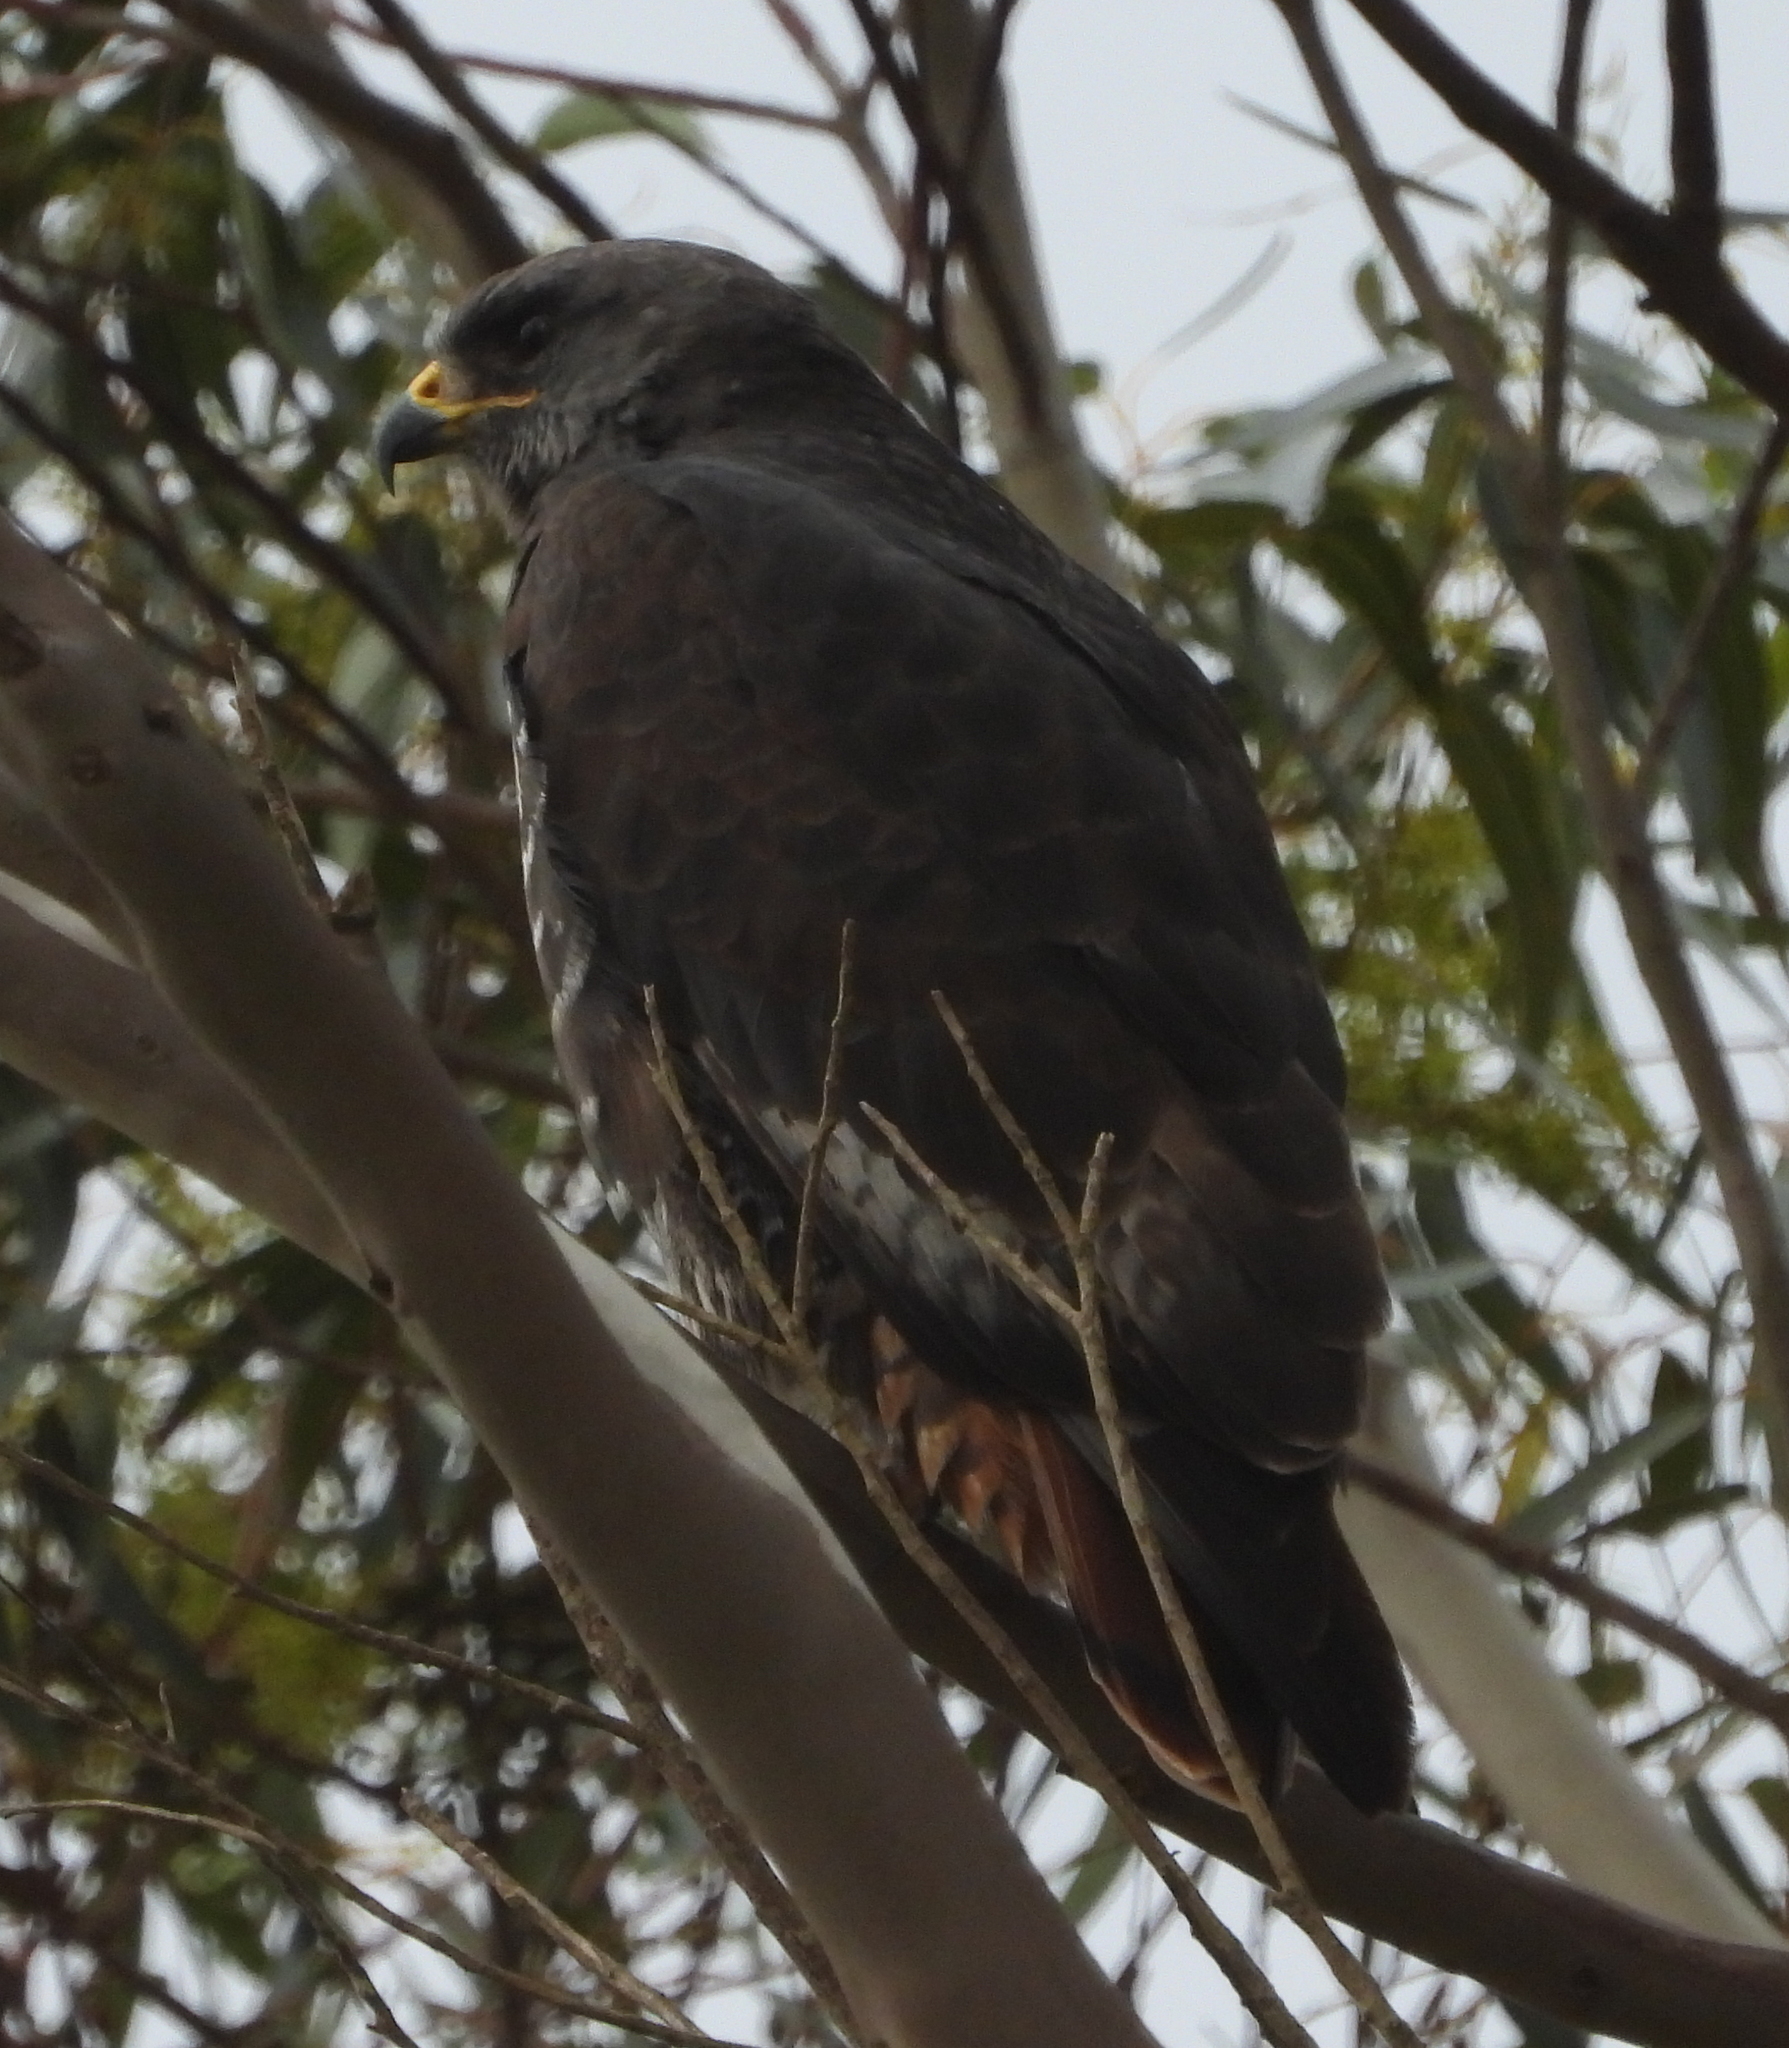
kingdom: Animalia
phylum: Chordata
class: Aves
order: Accipitriformes
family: Accipitridae
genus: Buteo
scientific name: Buteo rufofuscus
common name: Jackal buzzard
